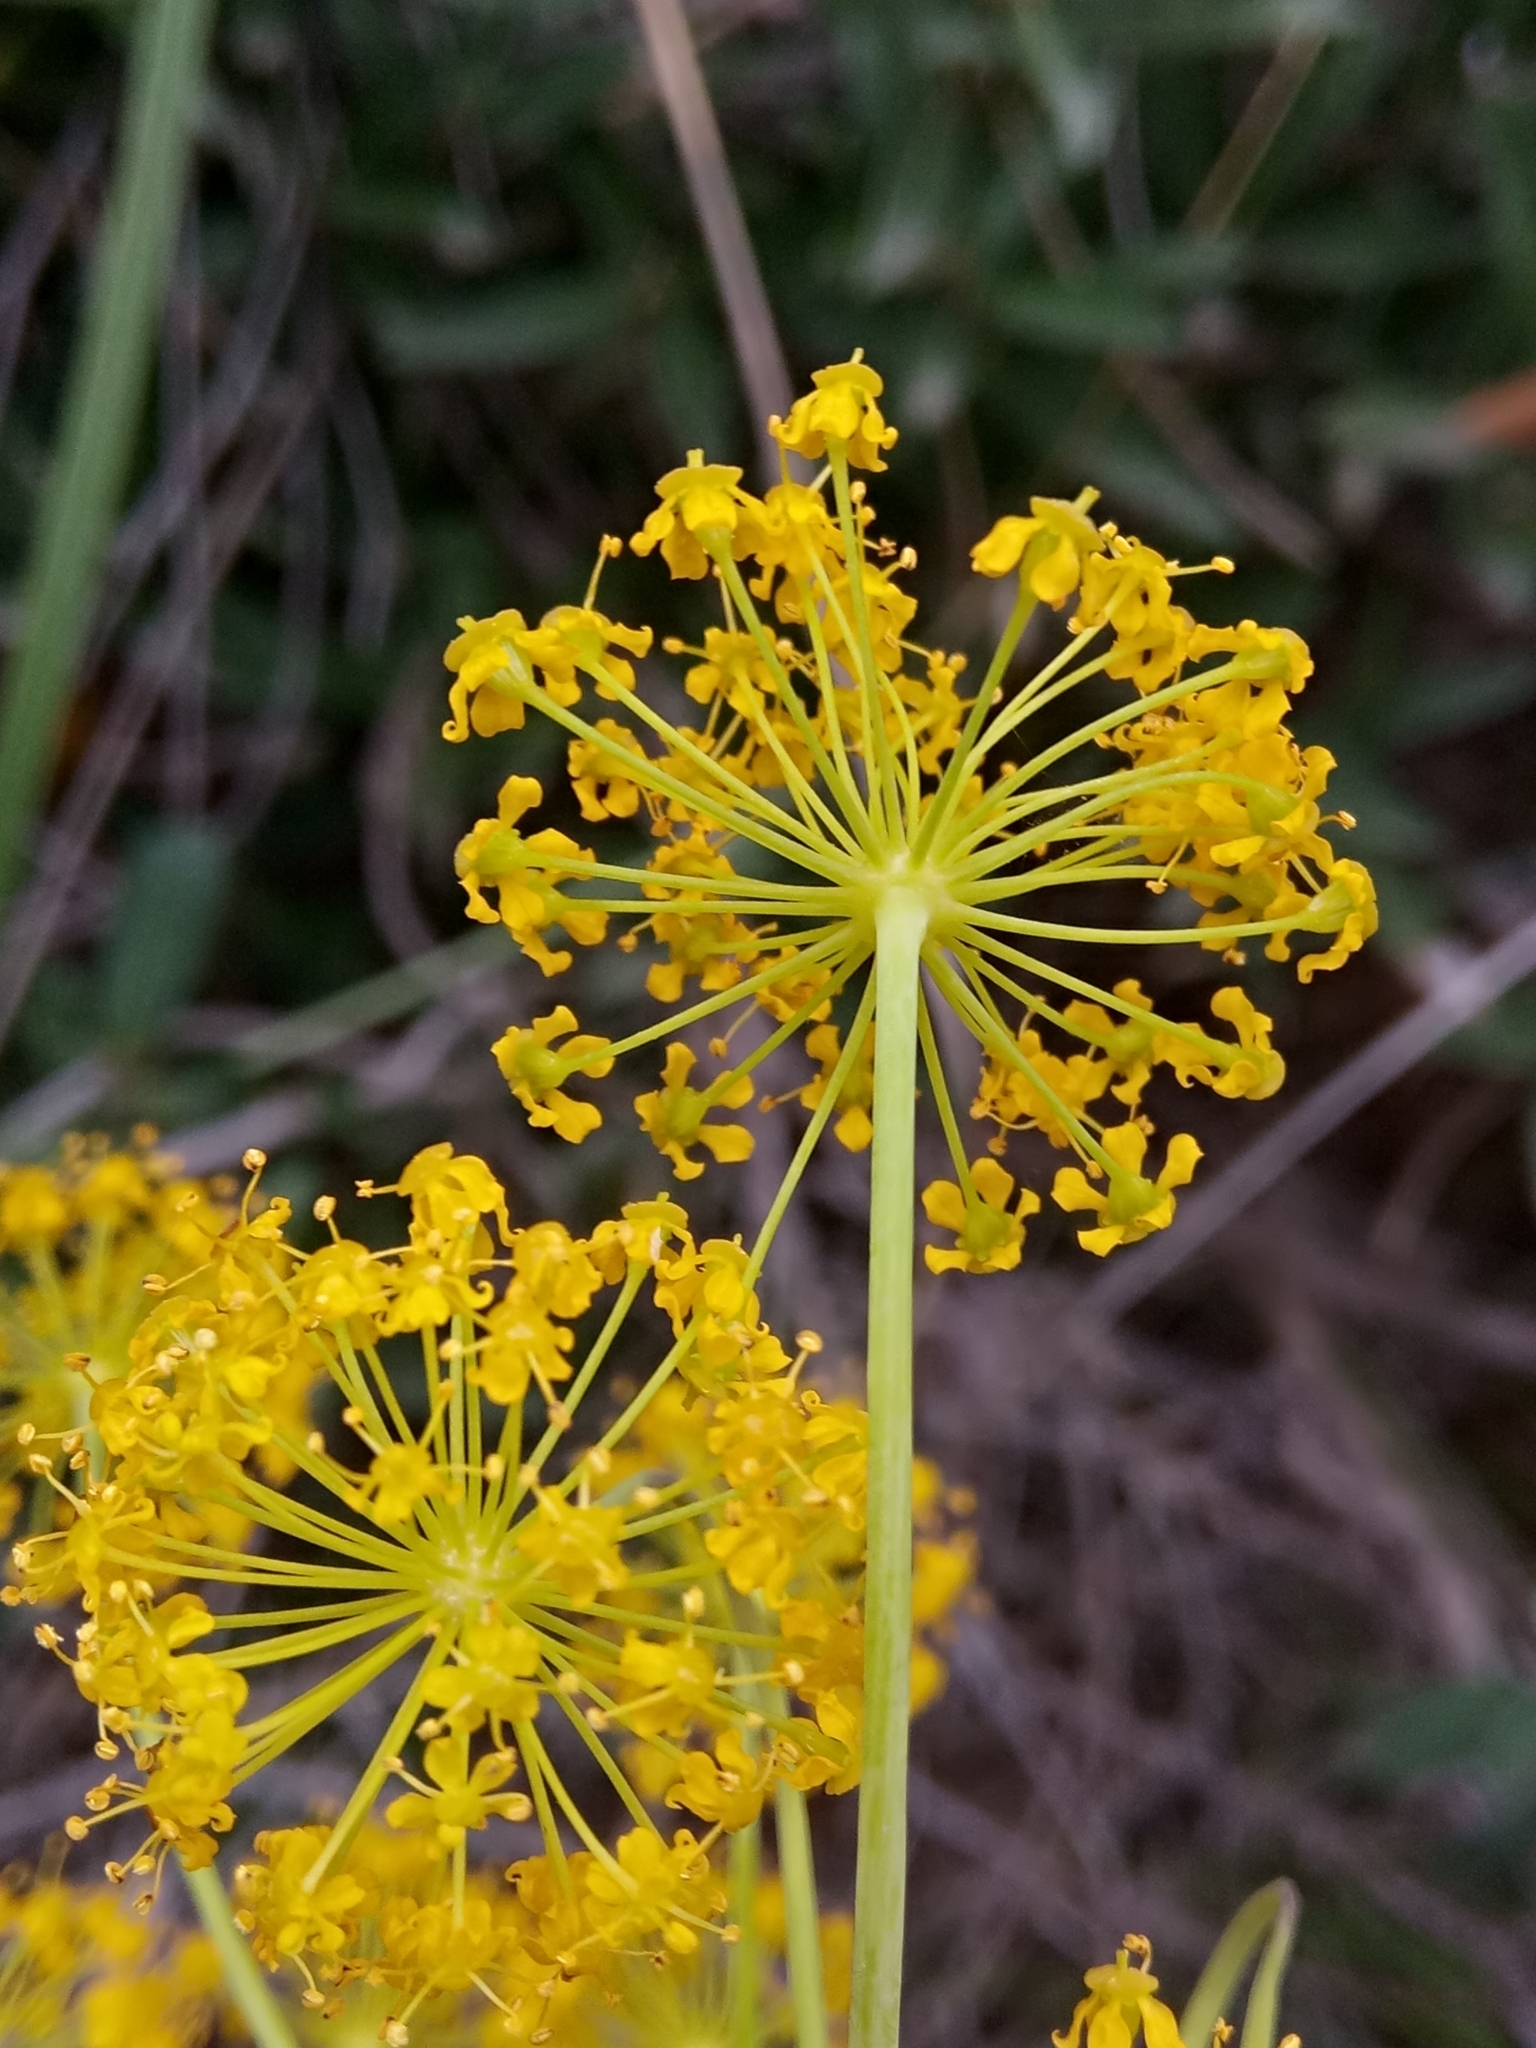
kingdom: Plantae
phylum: Tracheophyta
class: Magnoliopsida
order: Apiales
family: Apiaceae
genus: Thapsia
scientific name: Thapsia villosa
